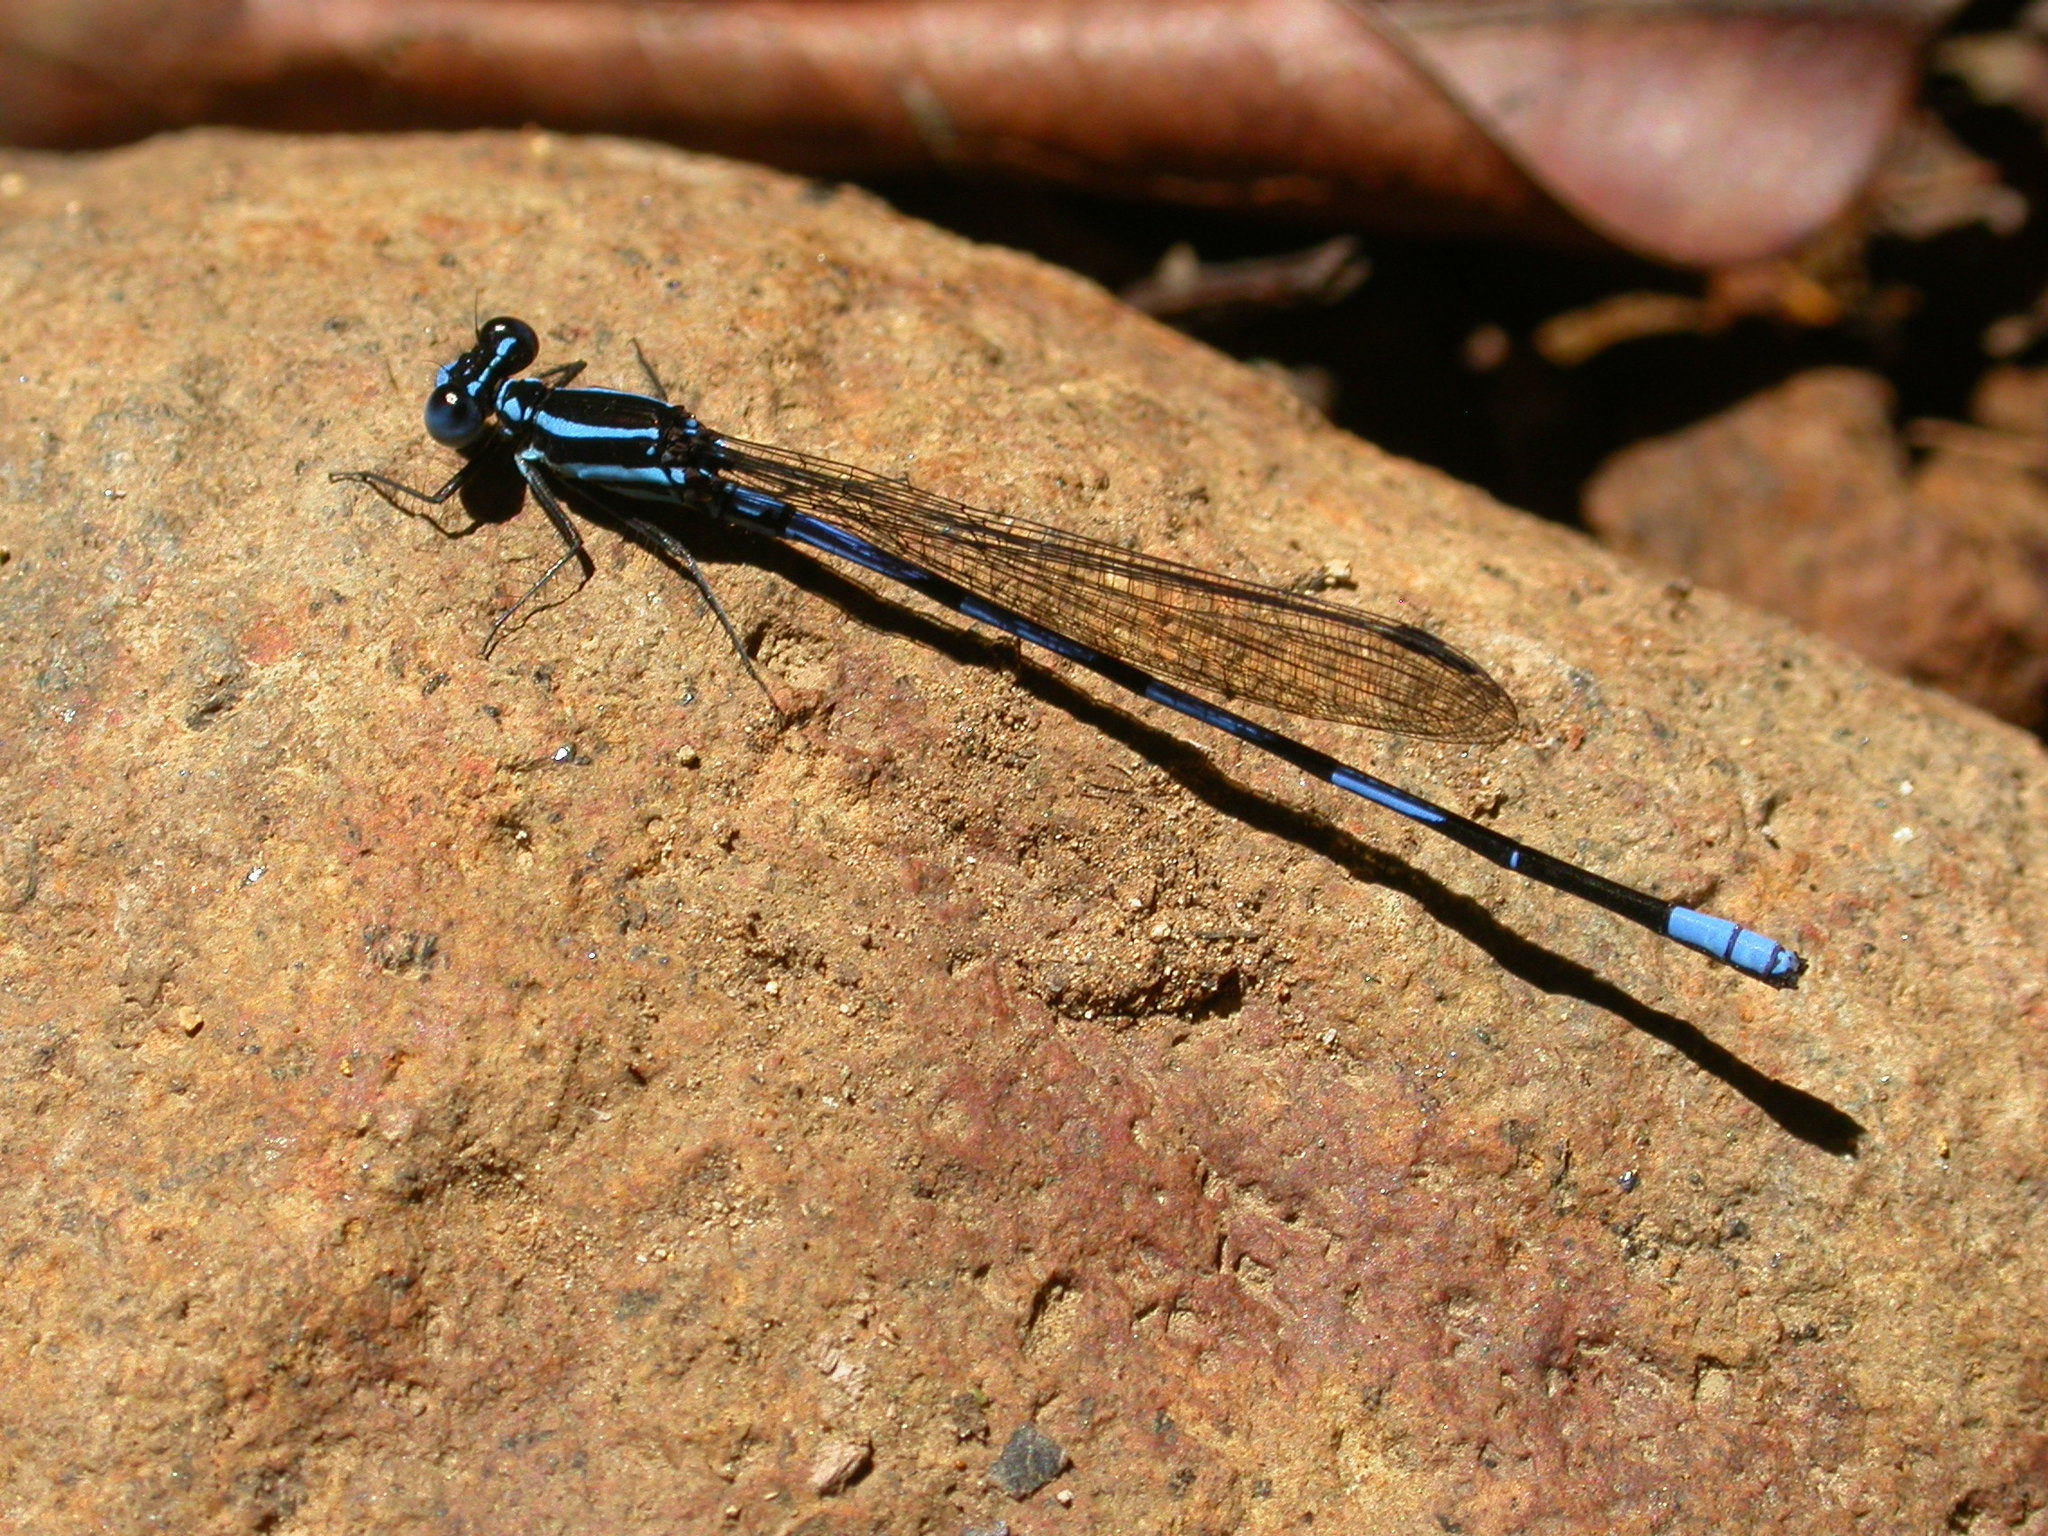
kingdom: Animalia
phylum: Arthropoda
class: Insecta
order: Odonata
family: Coenagrionidae
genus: Argia
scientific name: Argia concinna
